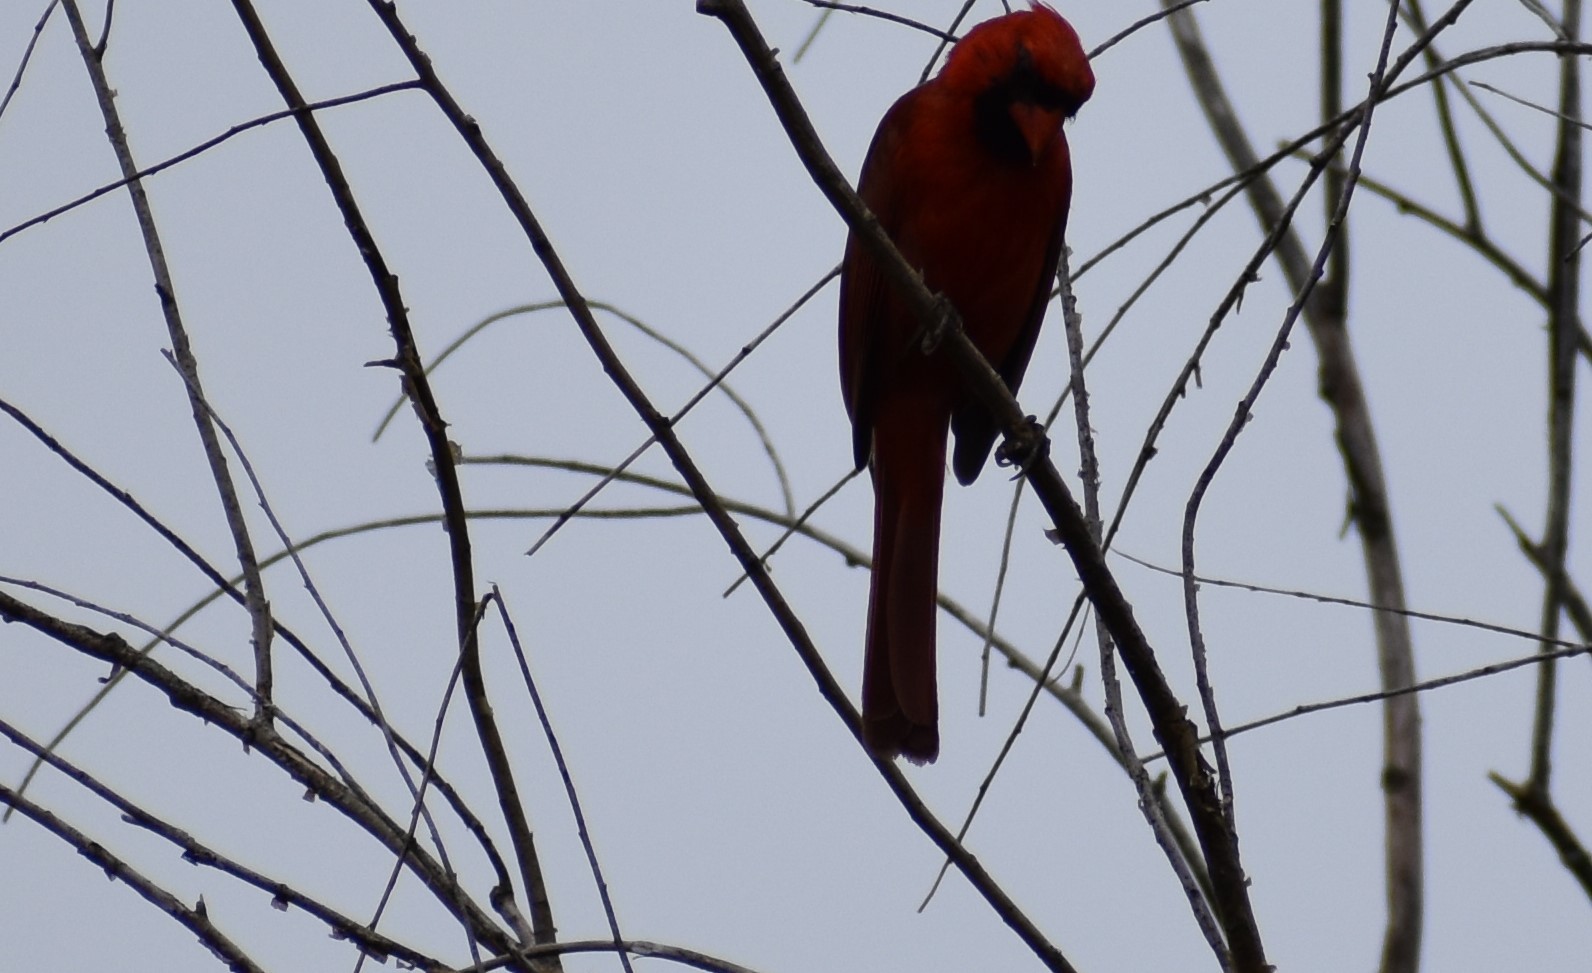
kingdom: Animalia
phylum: Chordata
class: Aves
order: Passeriformes
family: Cardinalidae
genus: Cardinalis
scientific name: Cardinalis cardinalis
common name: Northern cardinal
